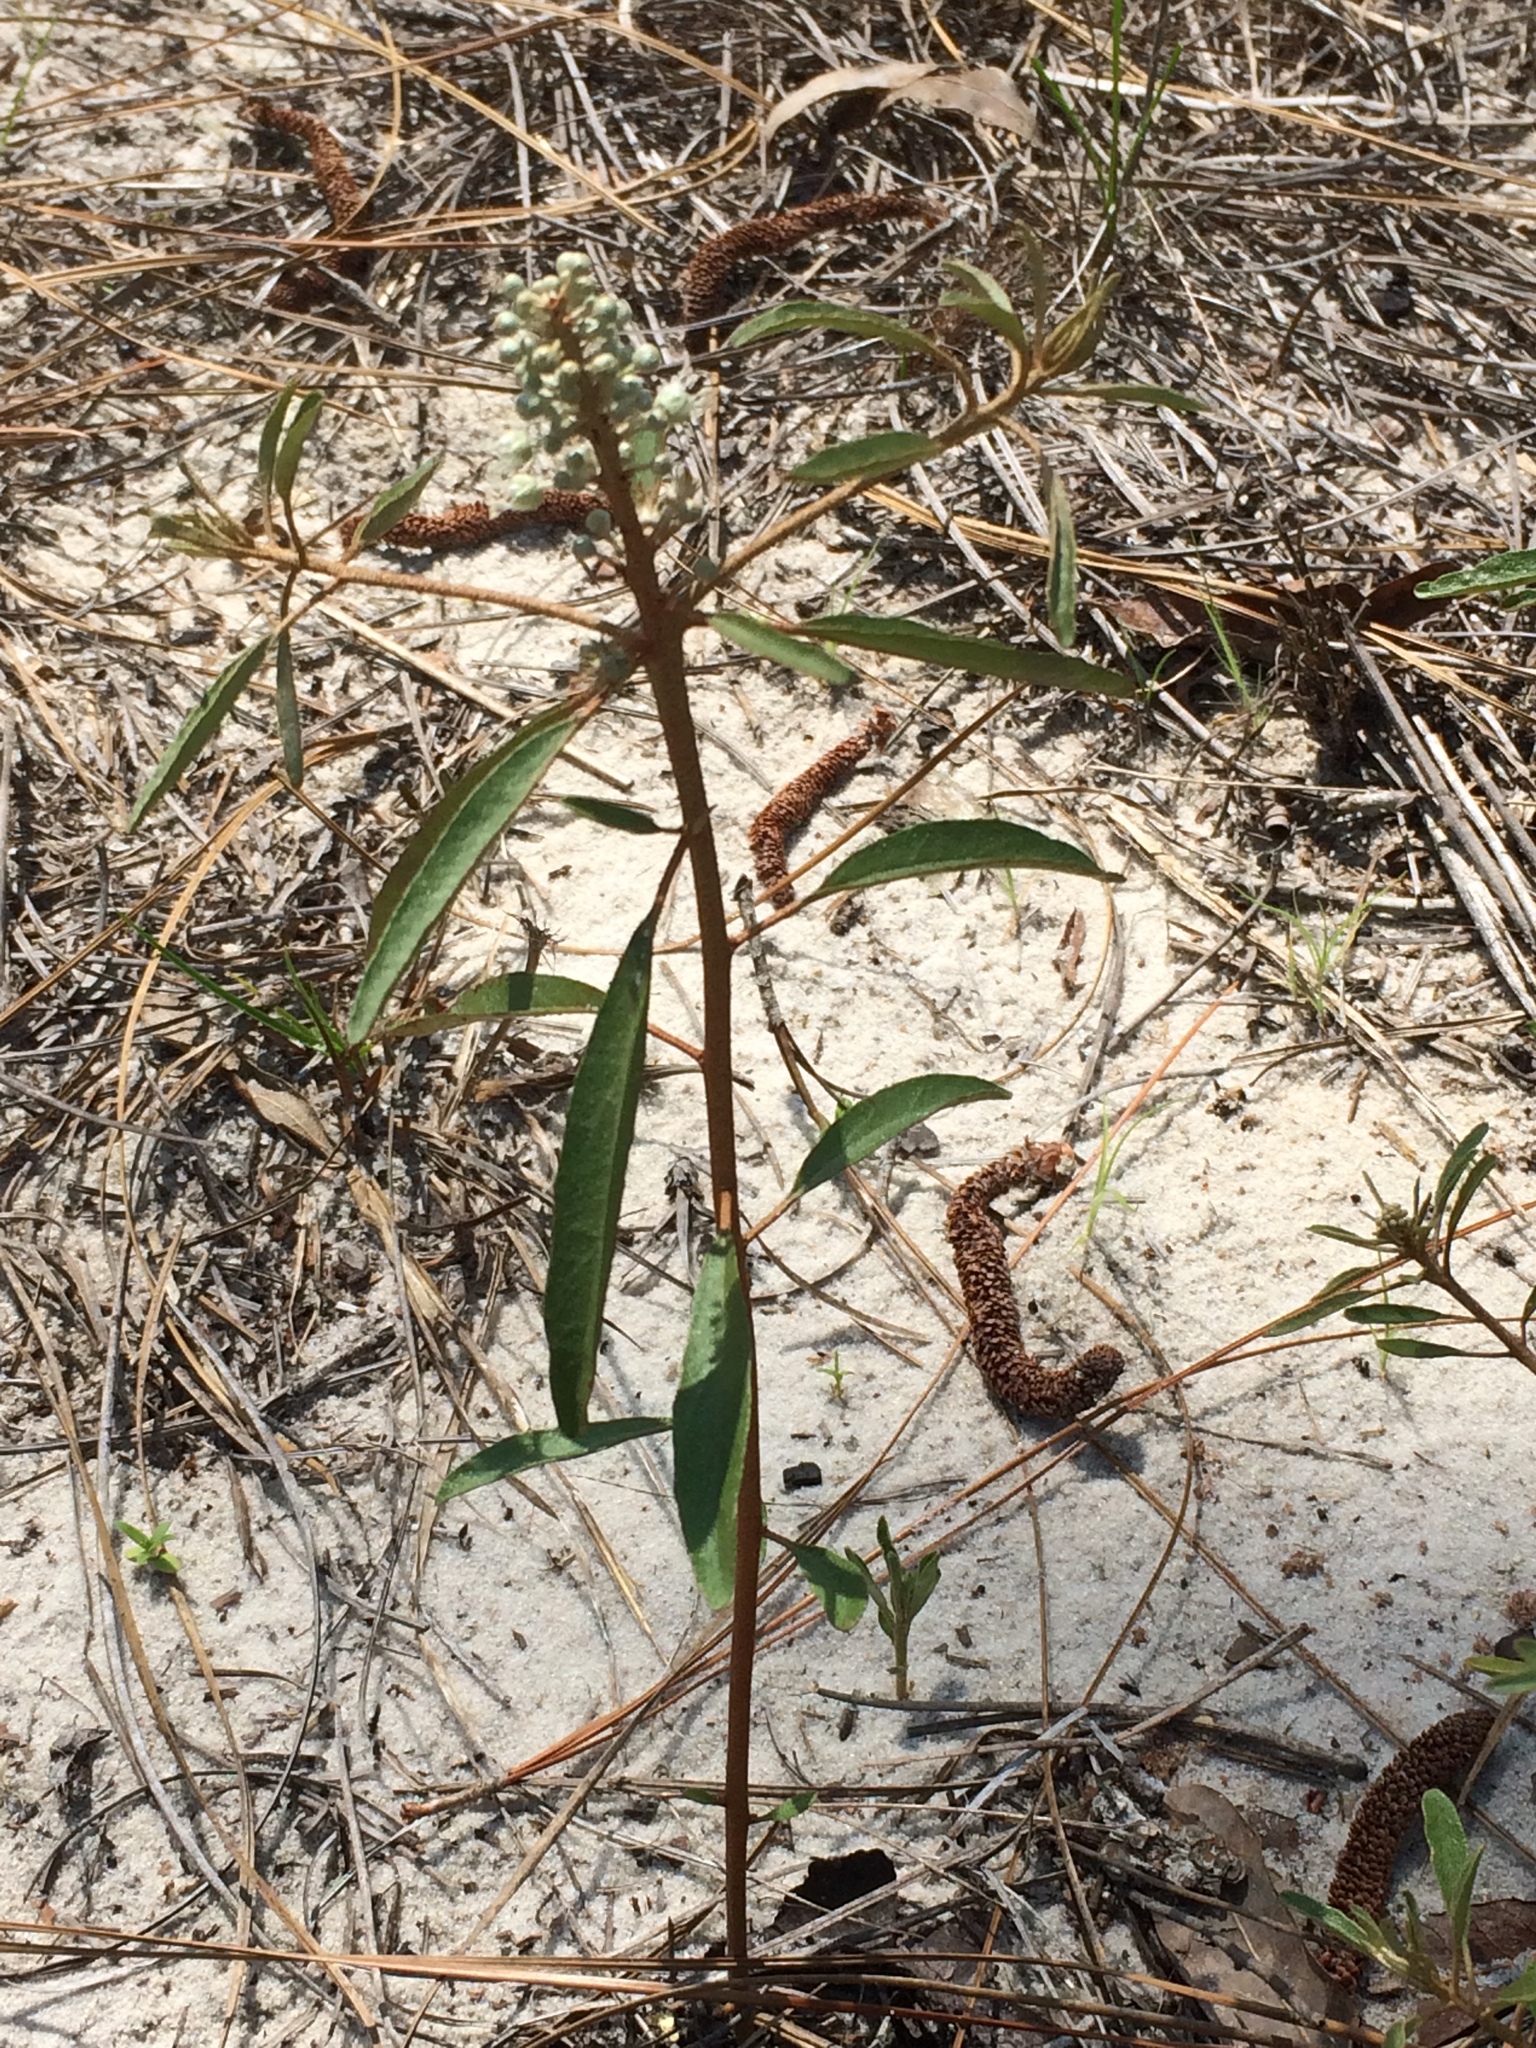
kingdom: Plantae
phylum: Tracheophyta
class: Magnoliopsida
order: Malpighiales
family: Euphorbiaceae
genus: Croton
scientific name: Croton argyranthemus
